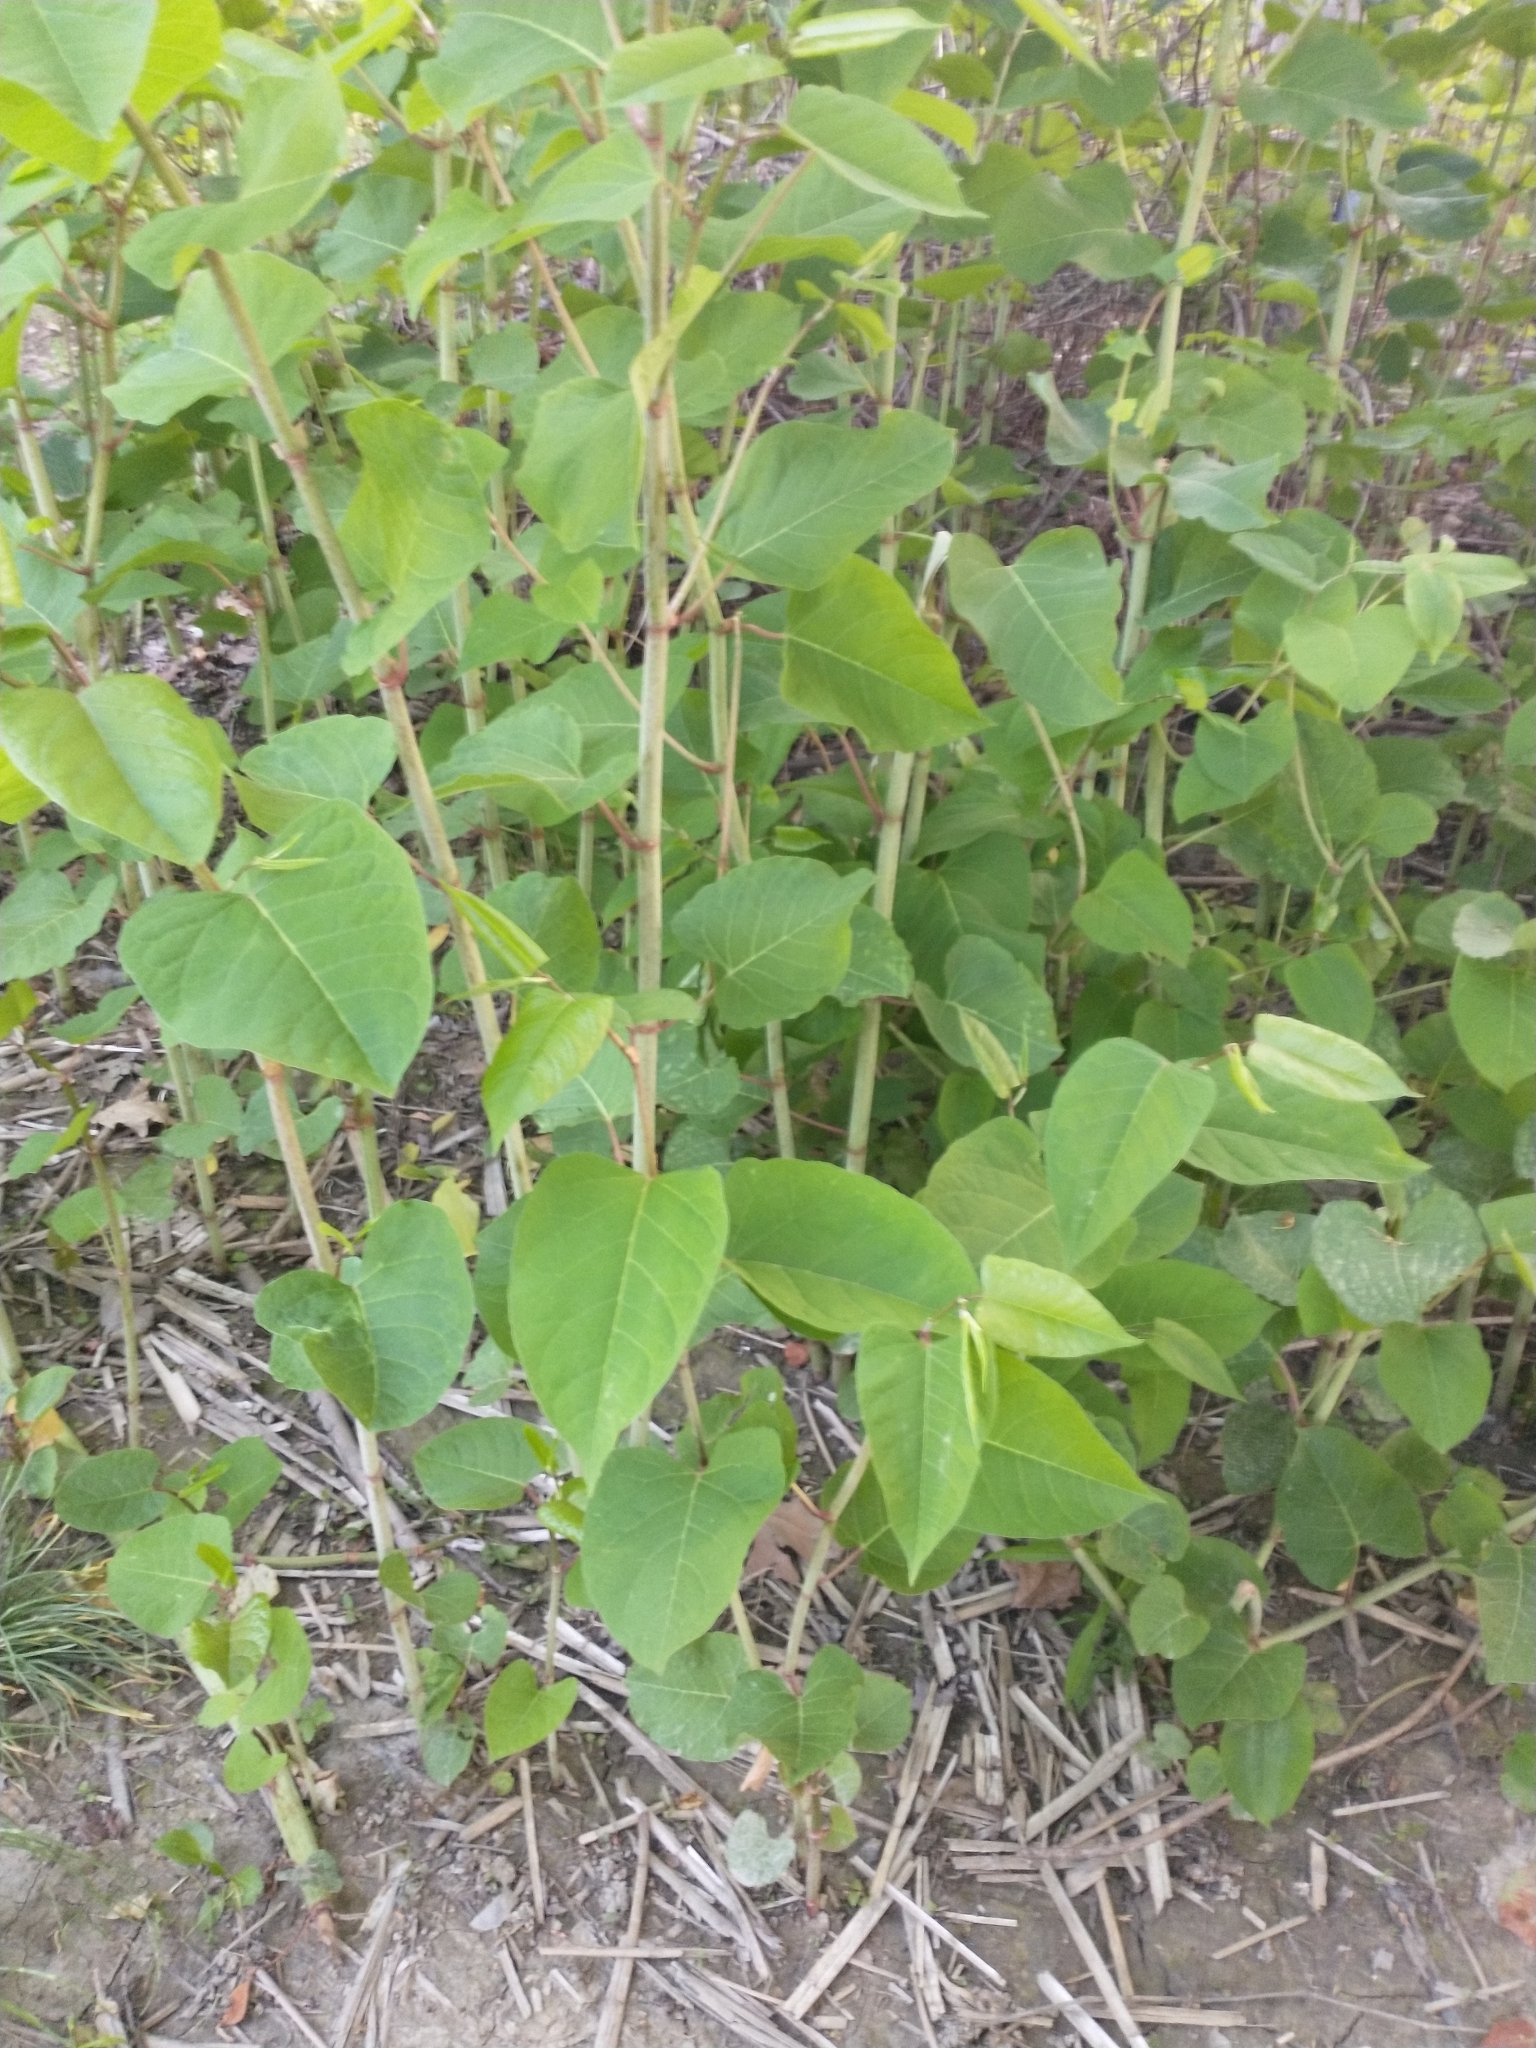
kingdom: Plantae
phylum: Tracheophyta
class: Magnoliopsida
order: Caryophyllales
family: Polygonaceae
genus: Reynoutria
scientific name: Reynoutria japonica
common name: Japanese knotweed
